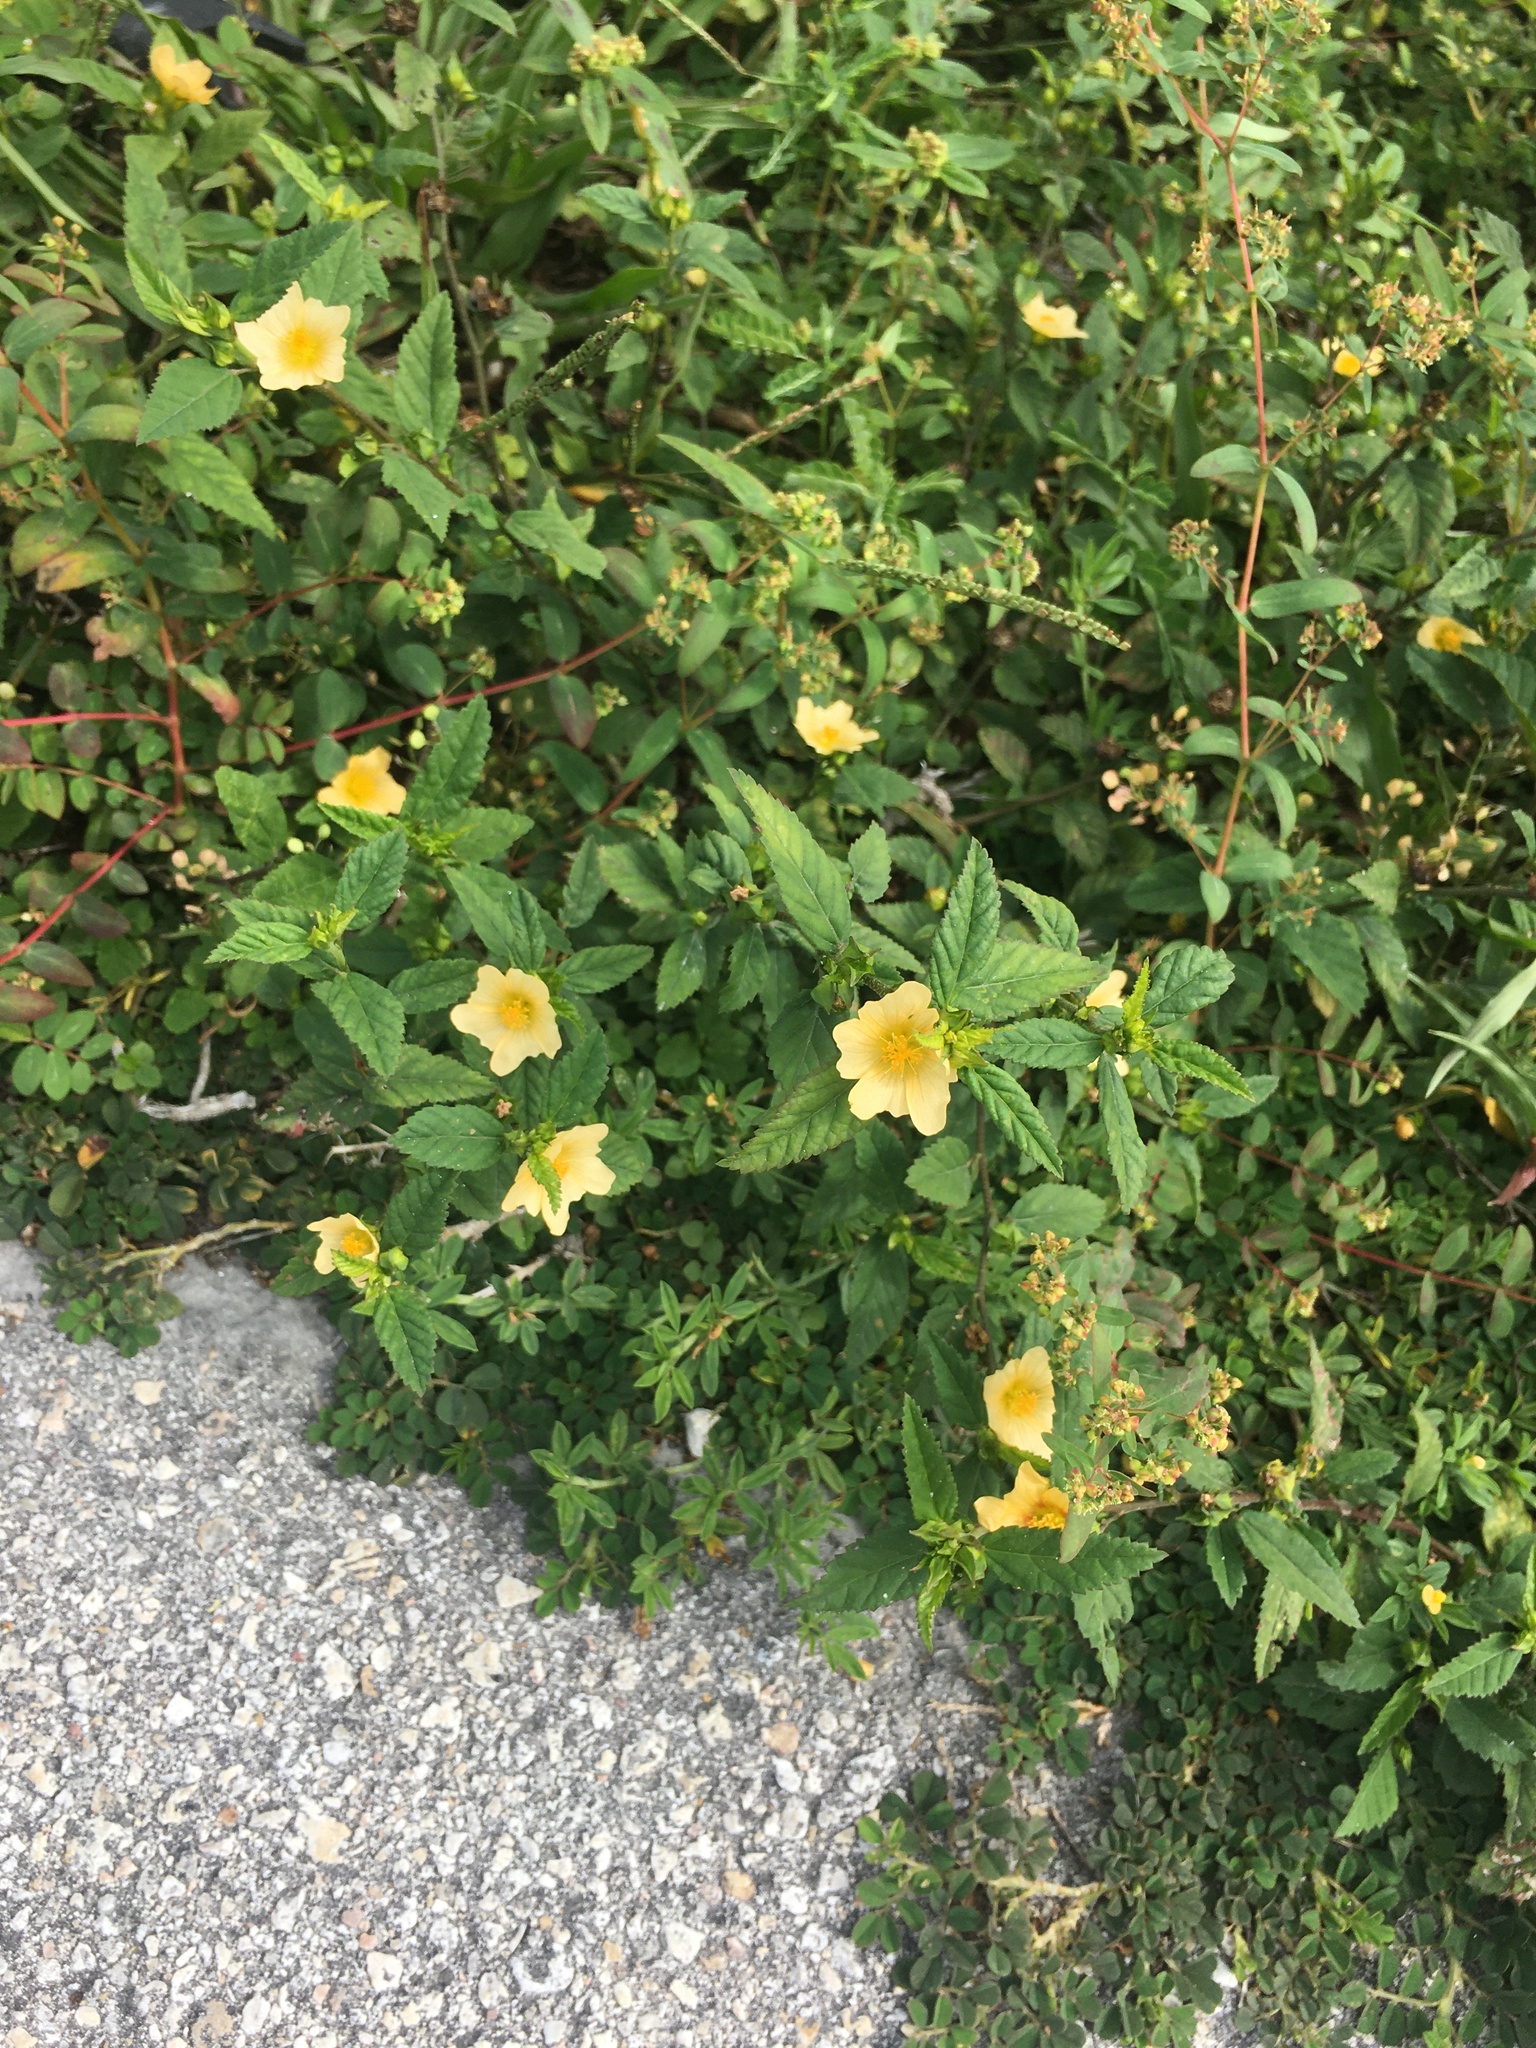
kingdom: Plantae
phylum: Tracheophyta
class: Magnoliopsida
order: Malvales
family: Malvaceae
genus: Sida
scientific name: Sida rhombifolia
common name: Queensland-hemp
